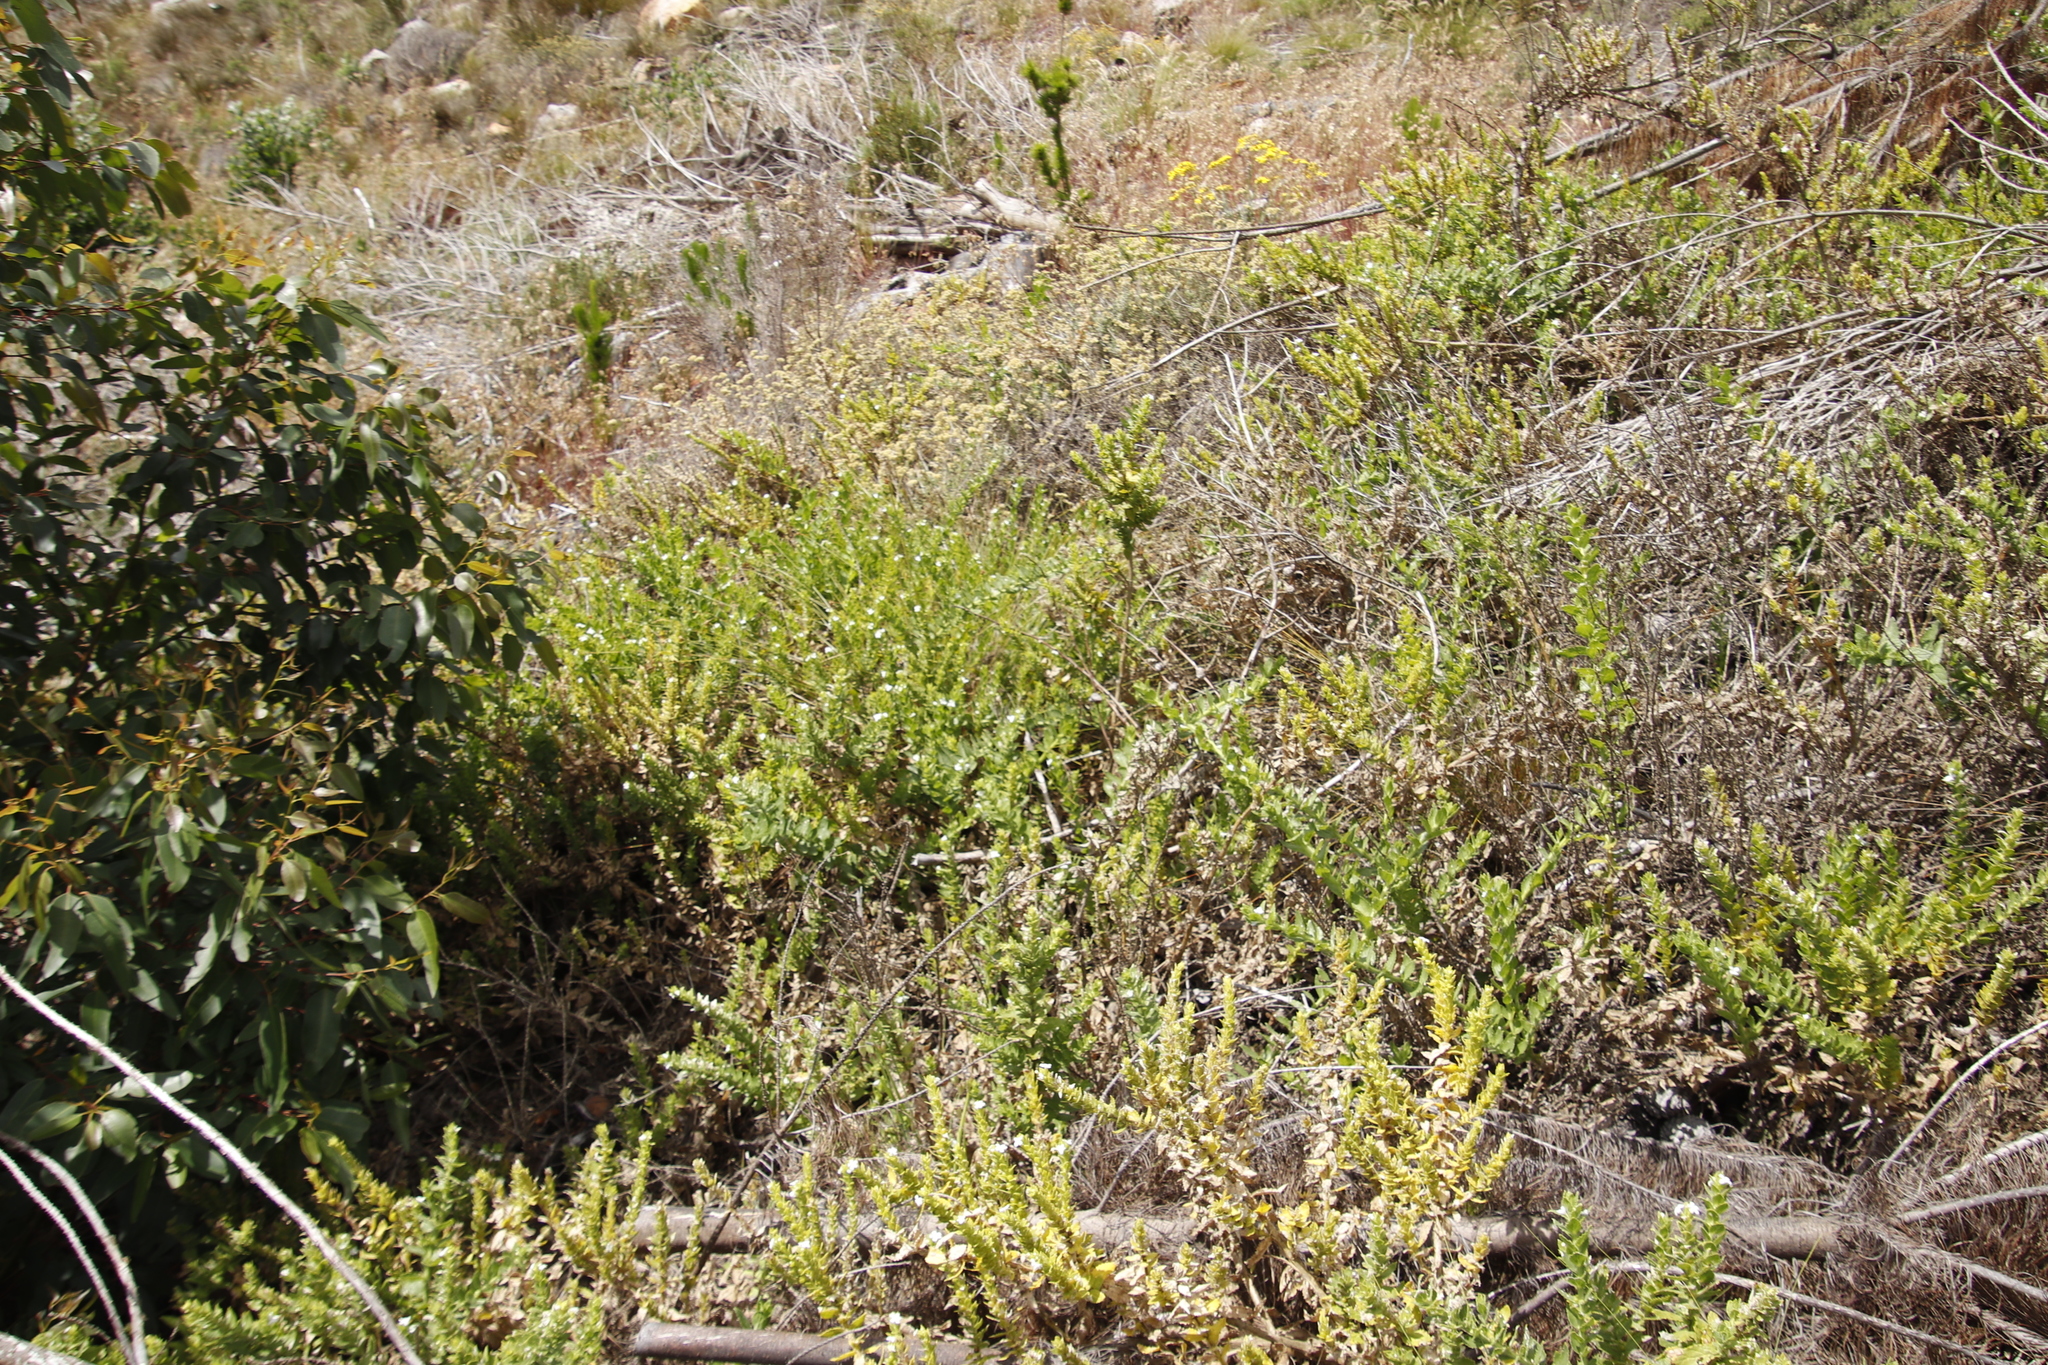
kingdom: Plantae
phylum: Tracheophyta
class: Magnoliopsida
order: Lamiales
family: Scrophulariaceae
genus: Oftia
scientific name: Oftia africana
